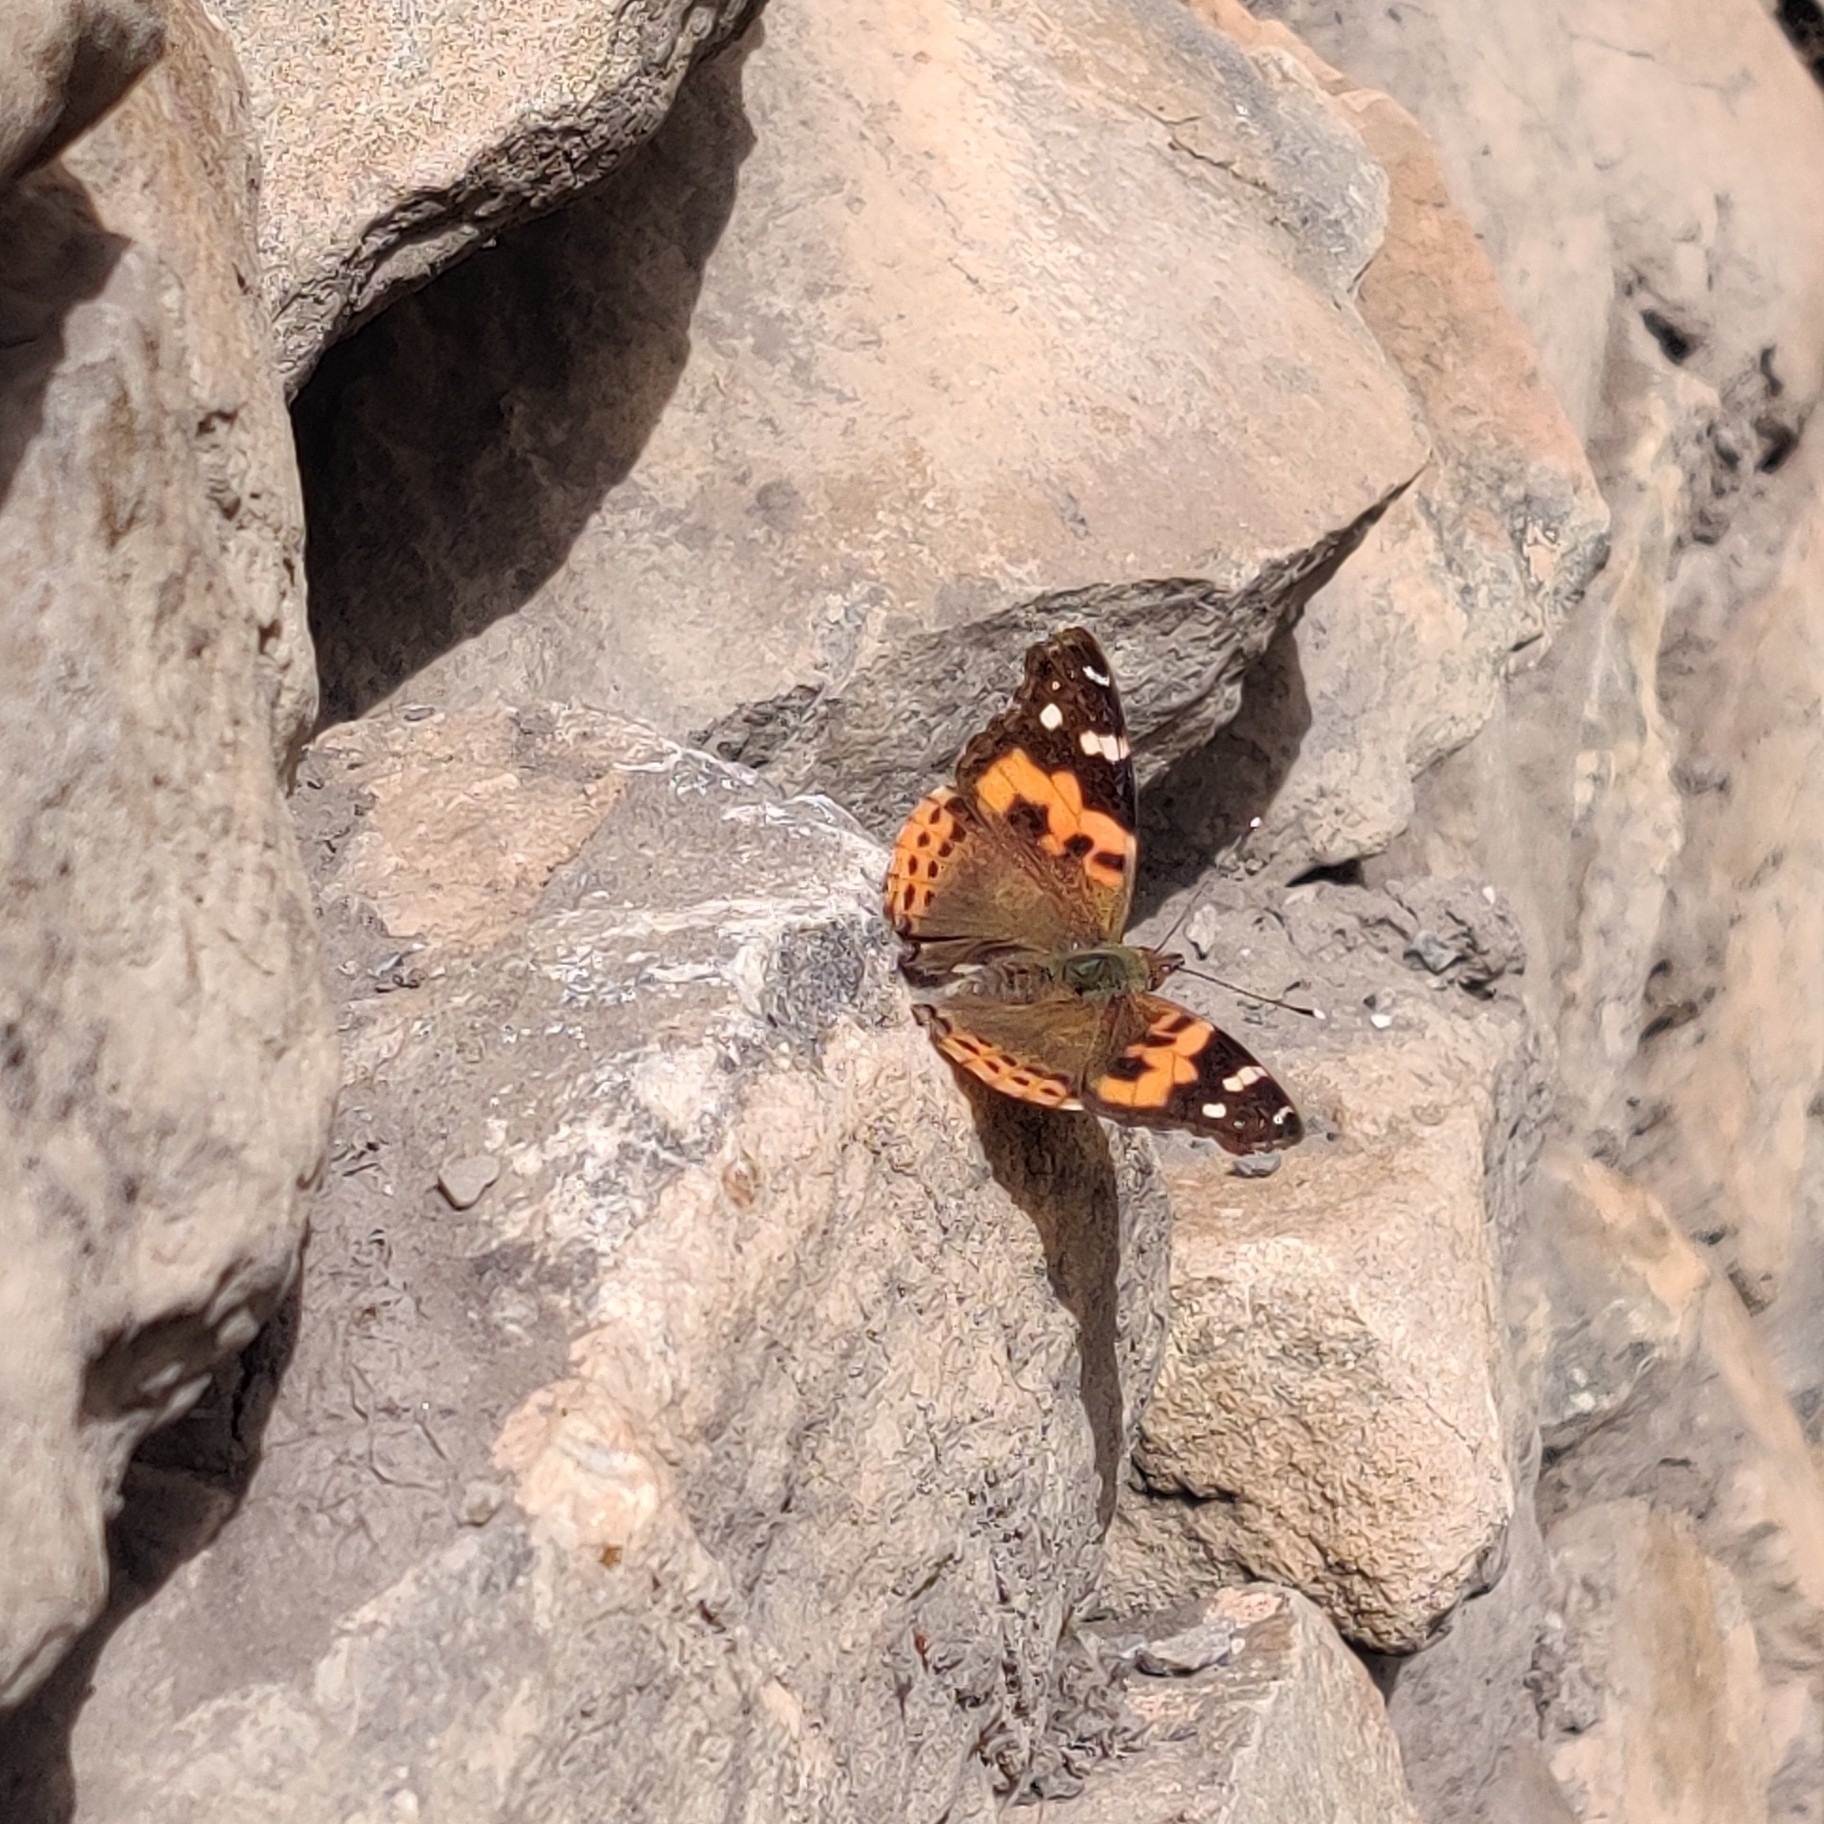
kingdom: Animalia
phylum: Arthropoda
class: Insecta
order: Lepidoptera
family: Nymphalidae
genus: Vanessa
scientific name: Vanessa indica
